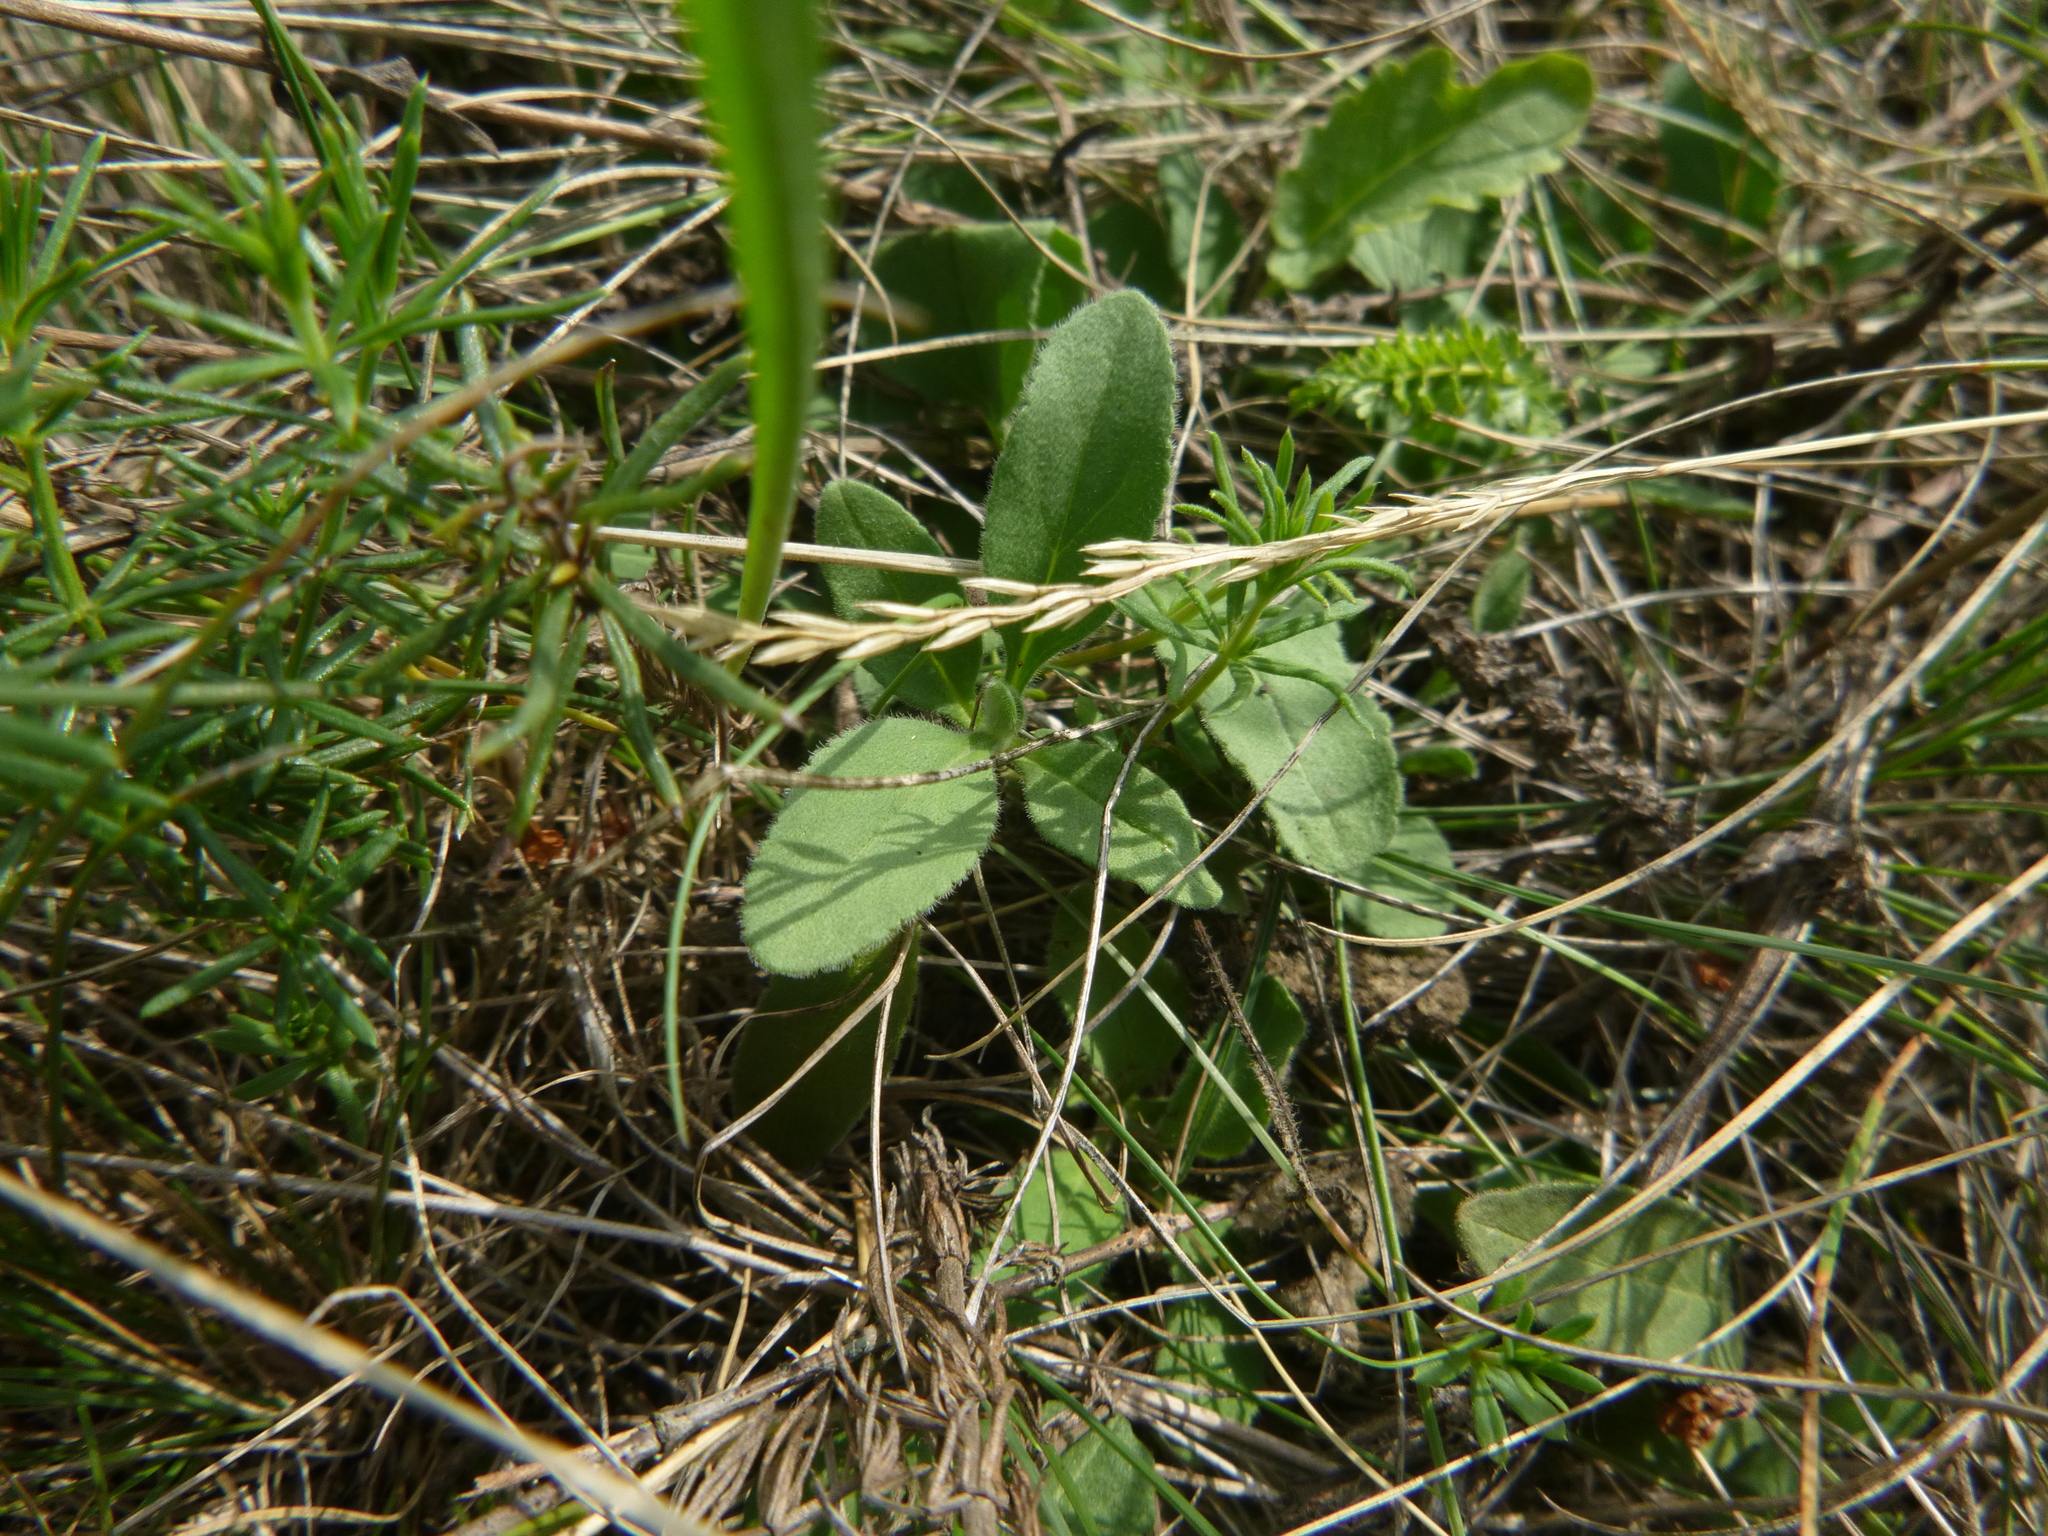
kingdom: Plantae
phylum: Tracheophyta
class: Magnoliopsida
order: Lamiales
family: Plantaginaceae
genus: Veronica
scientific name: Veronica spicata
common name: Spiked speedwell
